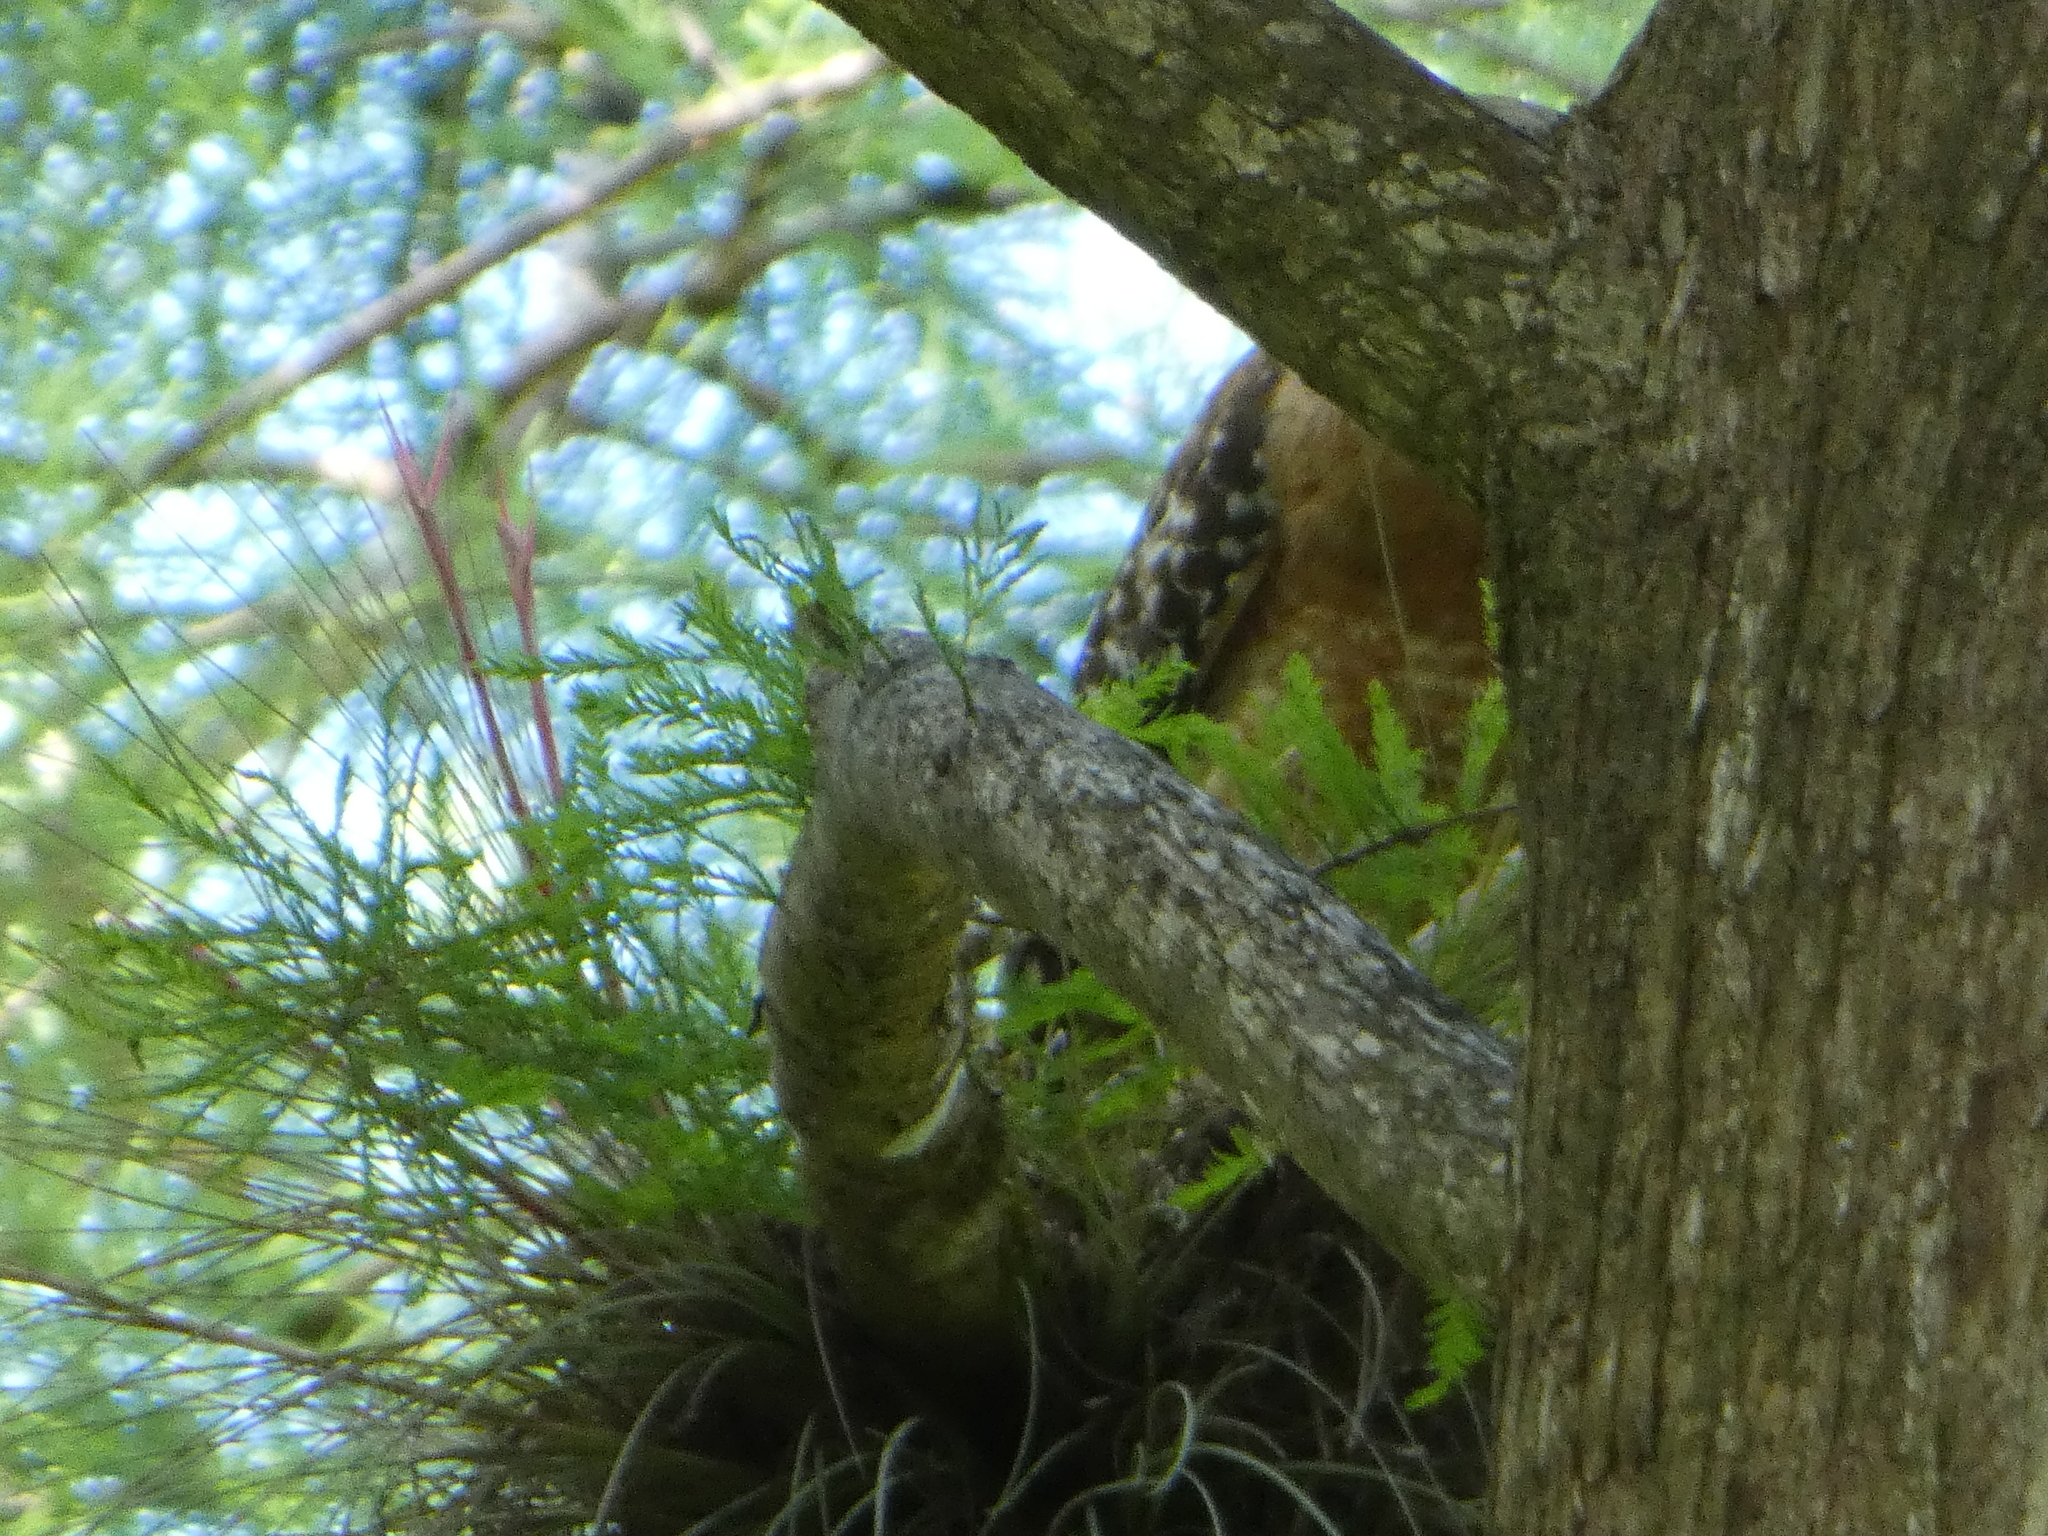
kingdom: Animalia
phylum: Chordata
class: Aves
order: Accipitriformes
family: Accipitridae
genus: Buteo
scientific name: Buteo lineatus
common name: Red-shouldered hawk
